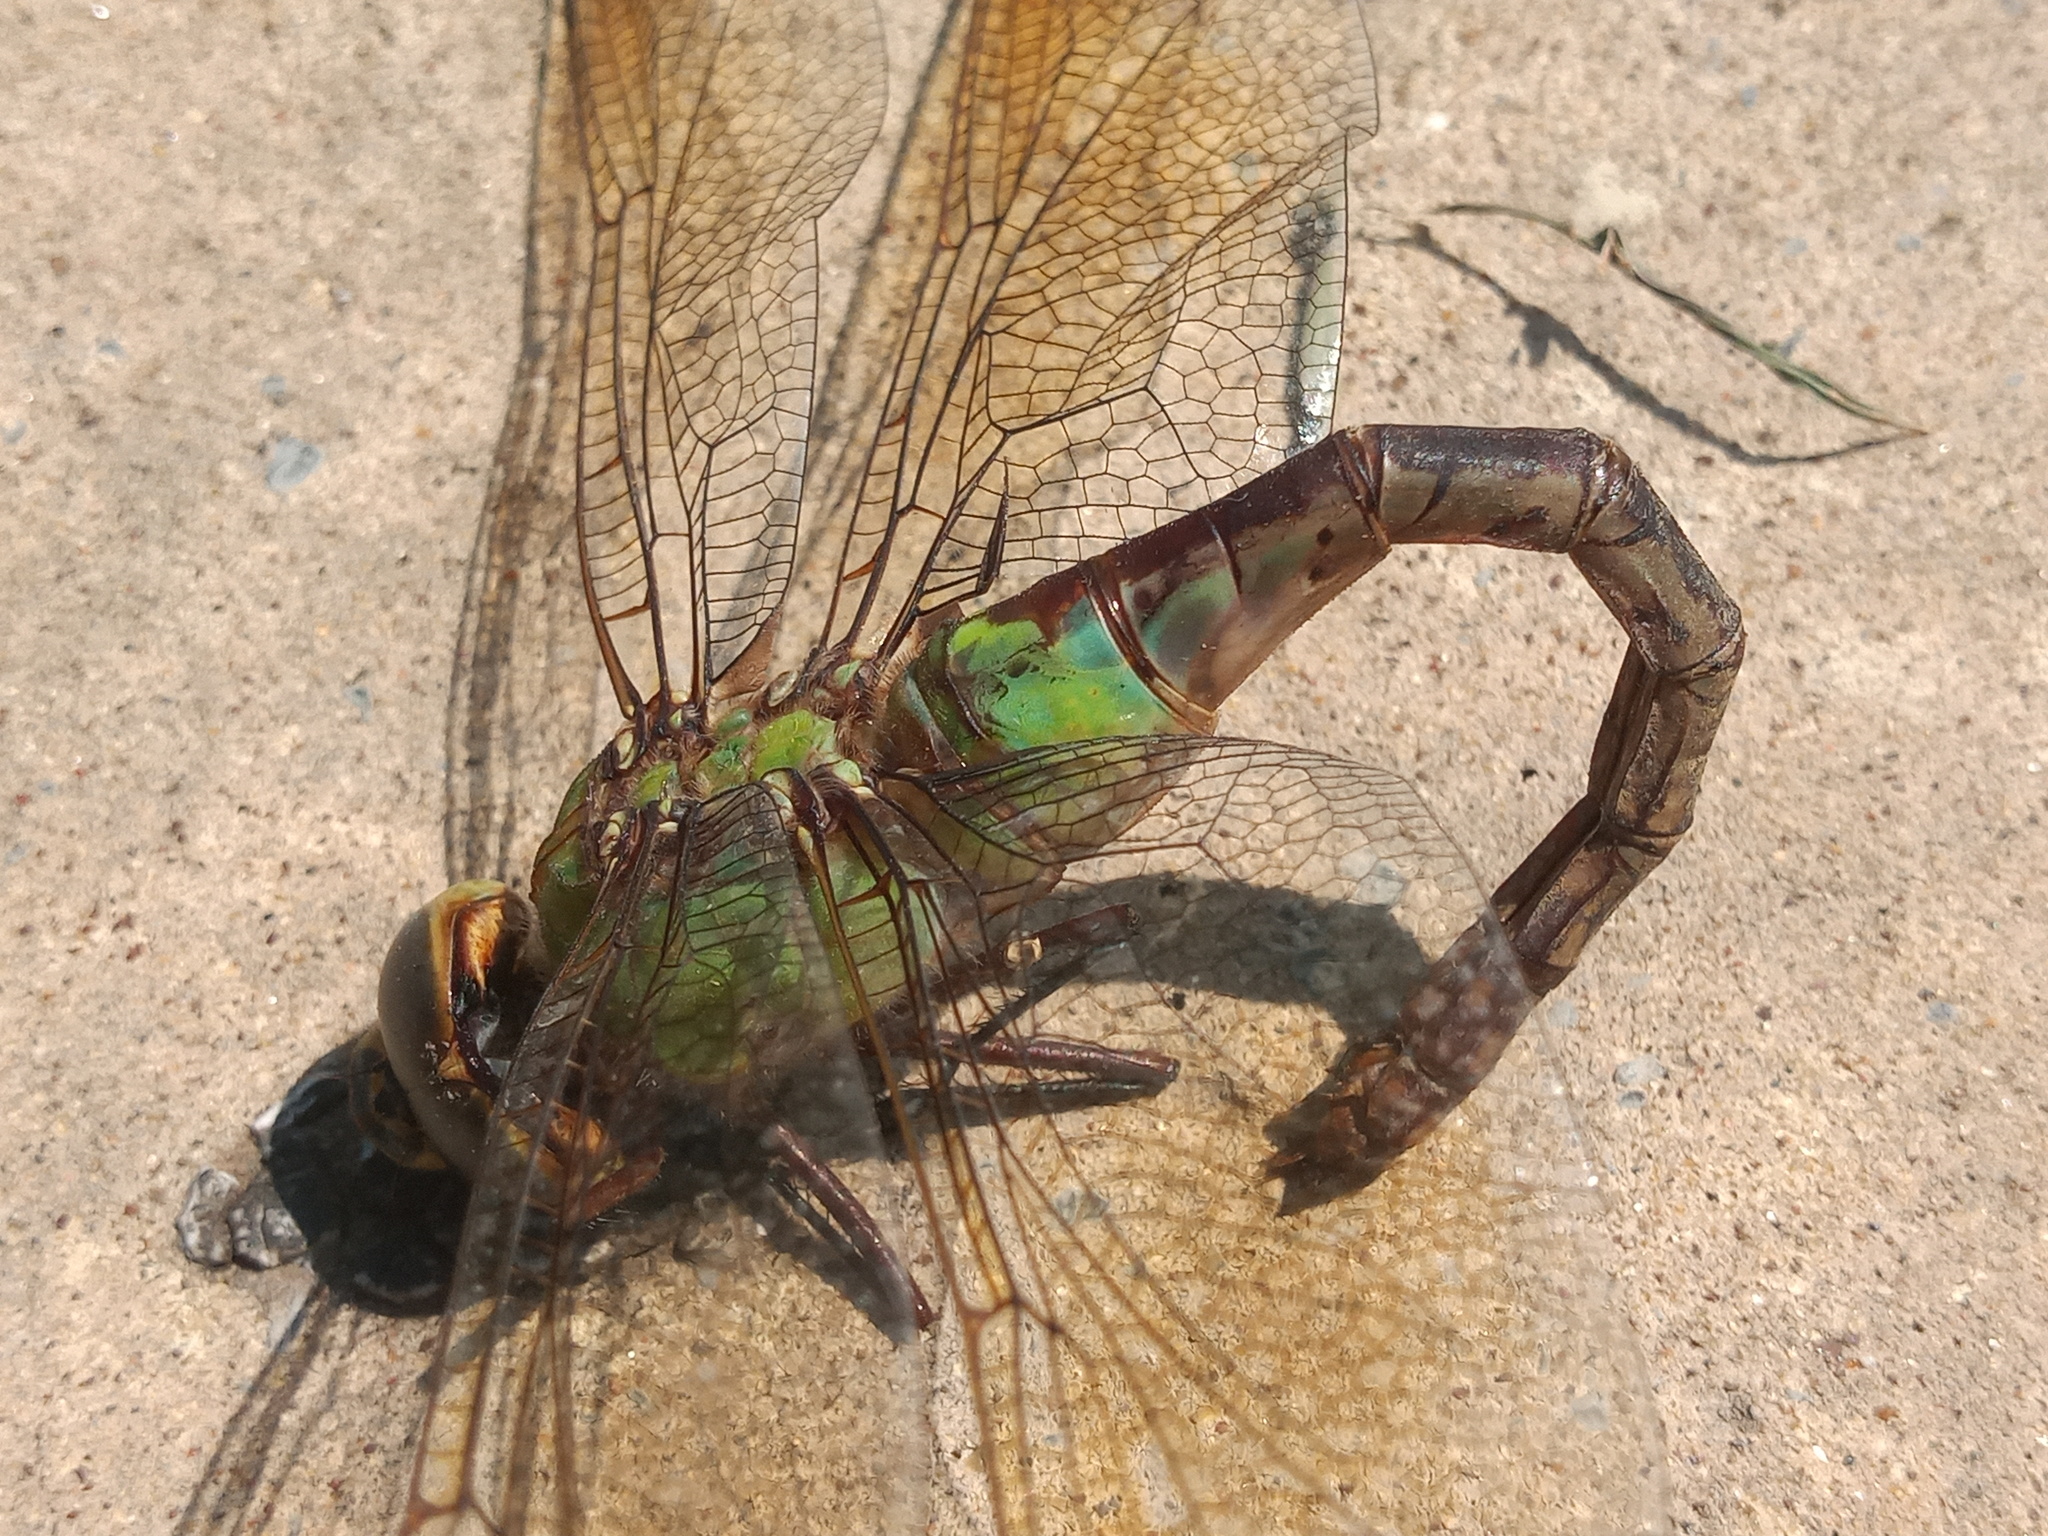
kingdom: Animalia
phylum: Arthropoda
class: Insecta
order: Odonata
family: Aeshnidae
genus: Anax
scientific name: Anax junius
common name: Common green darner
